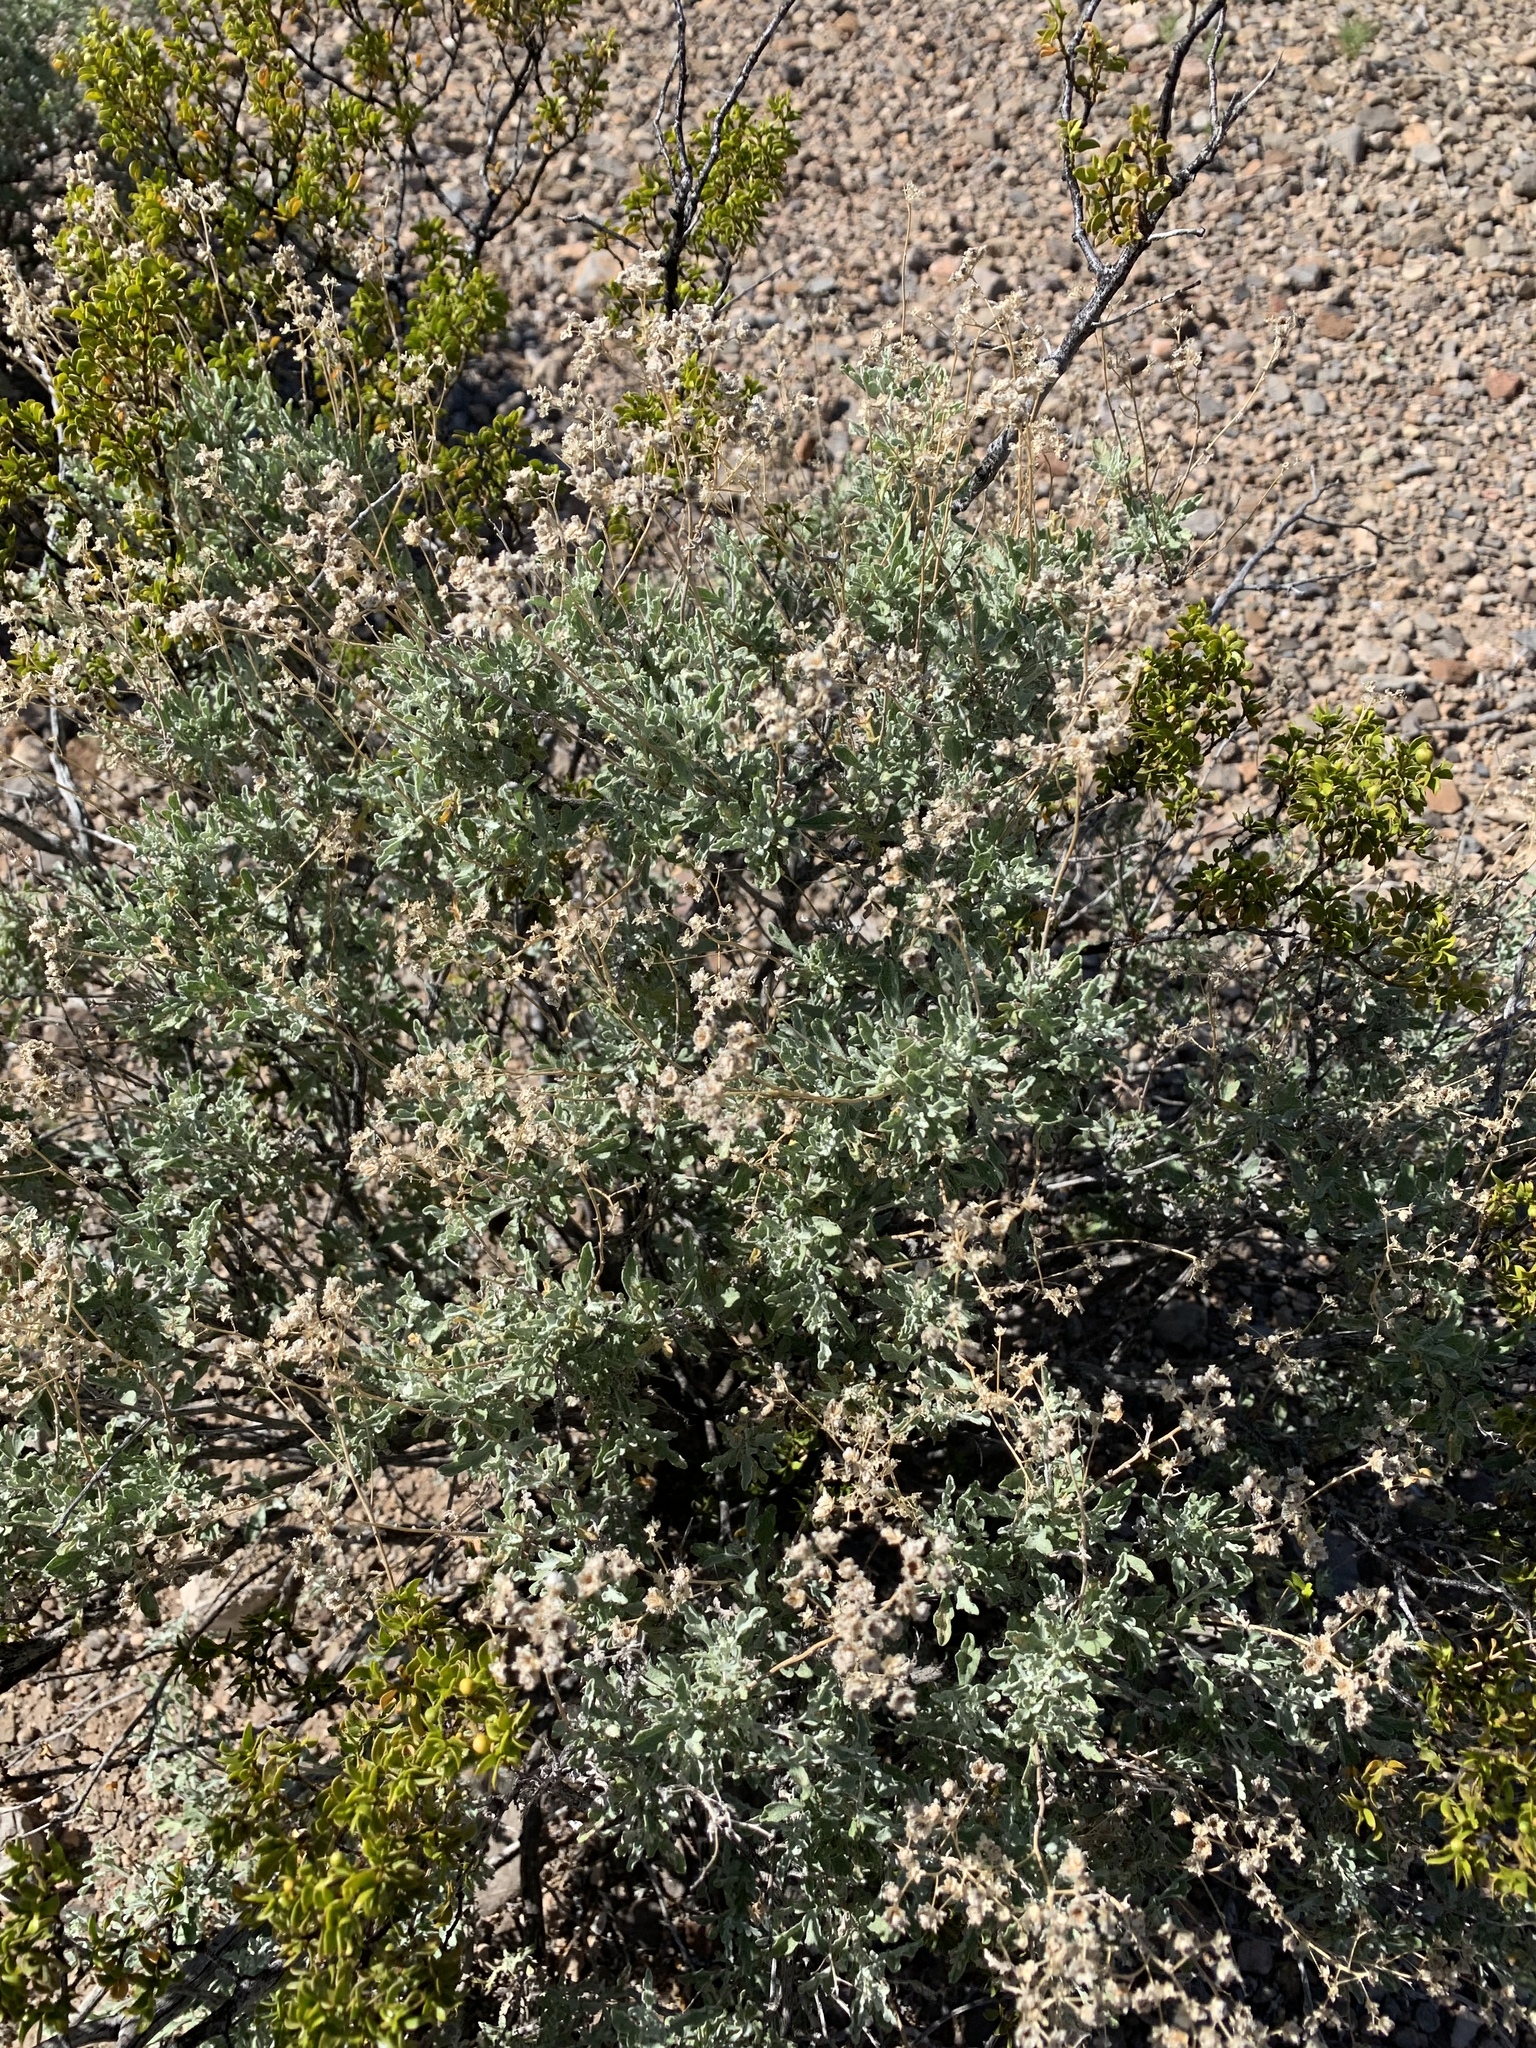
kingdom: Plantae
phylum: Tracheophyta
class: Magnoliopsida
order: Asterales
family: Asteraceae
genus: Parthenium
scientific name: Parthenium incanum
